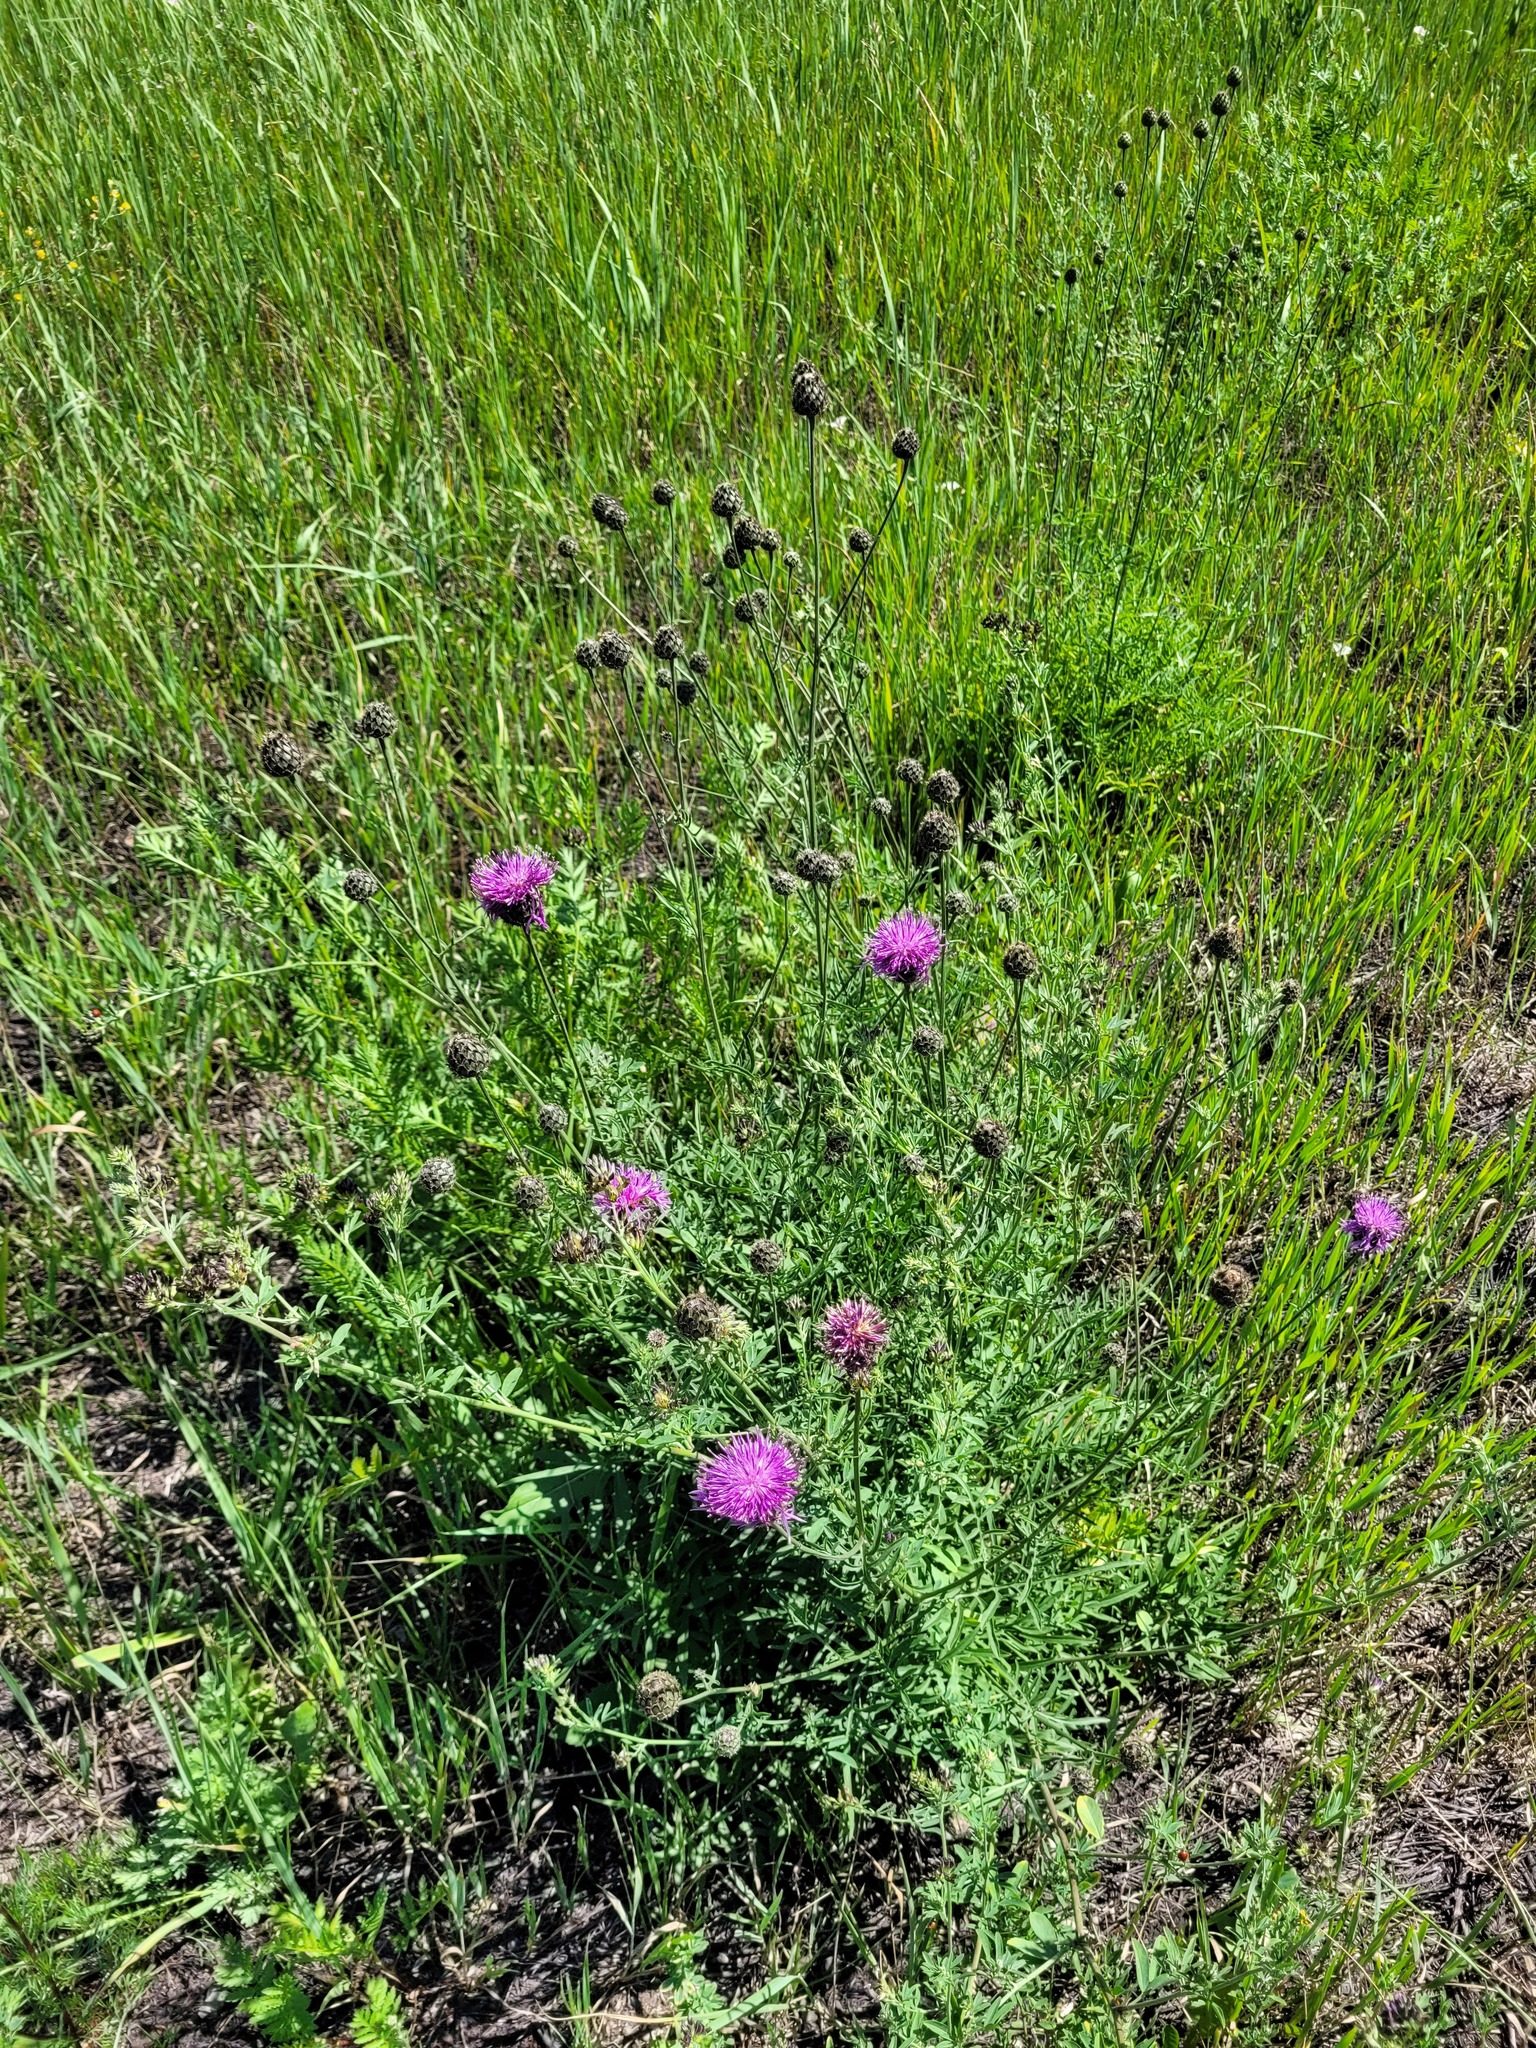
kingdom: Plantae
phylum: Tracheophyta
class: Magnoliopsida
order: Asterales
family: Asteraceae
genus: Centaurea
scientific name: Centaurea scabiosa
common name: Greater knapweed
